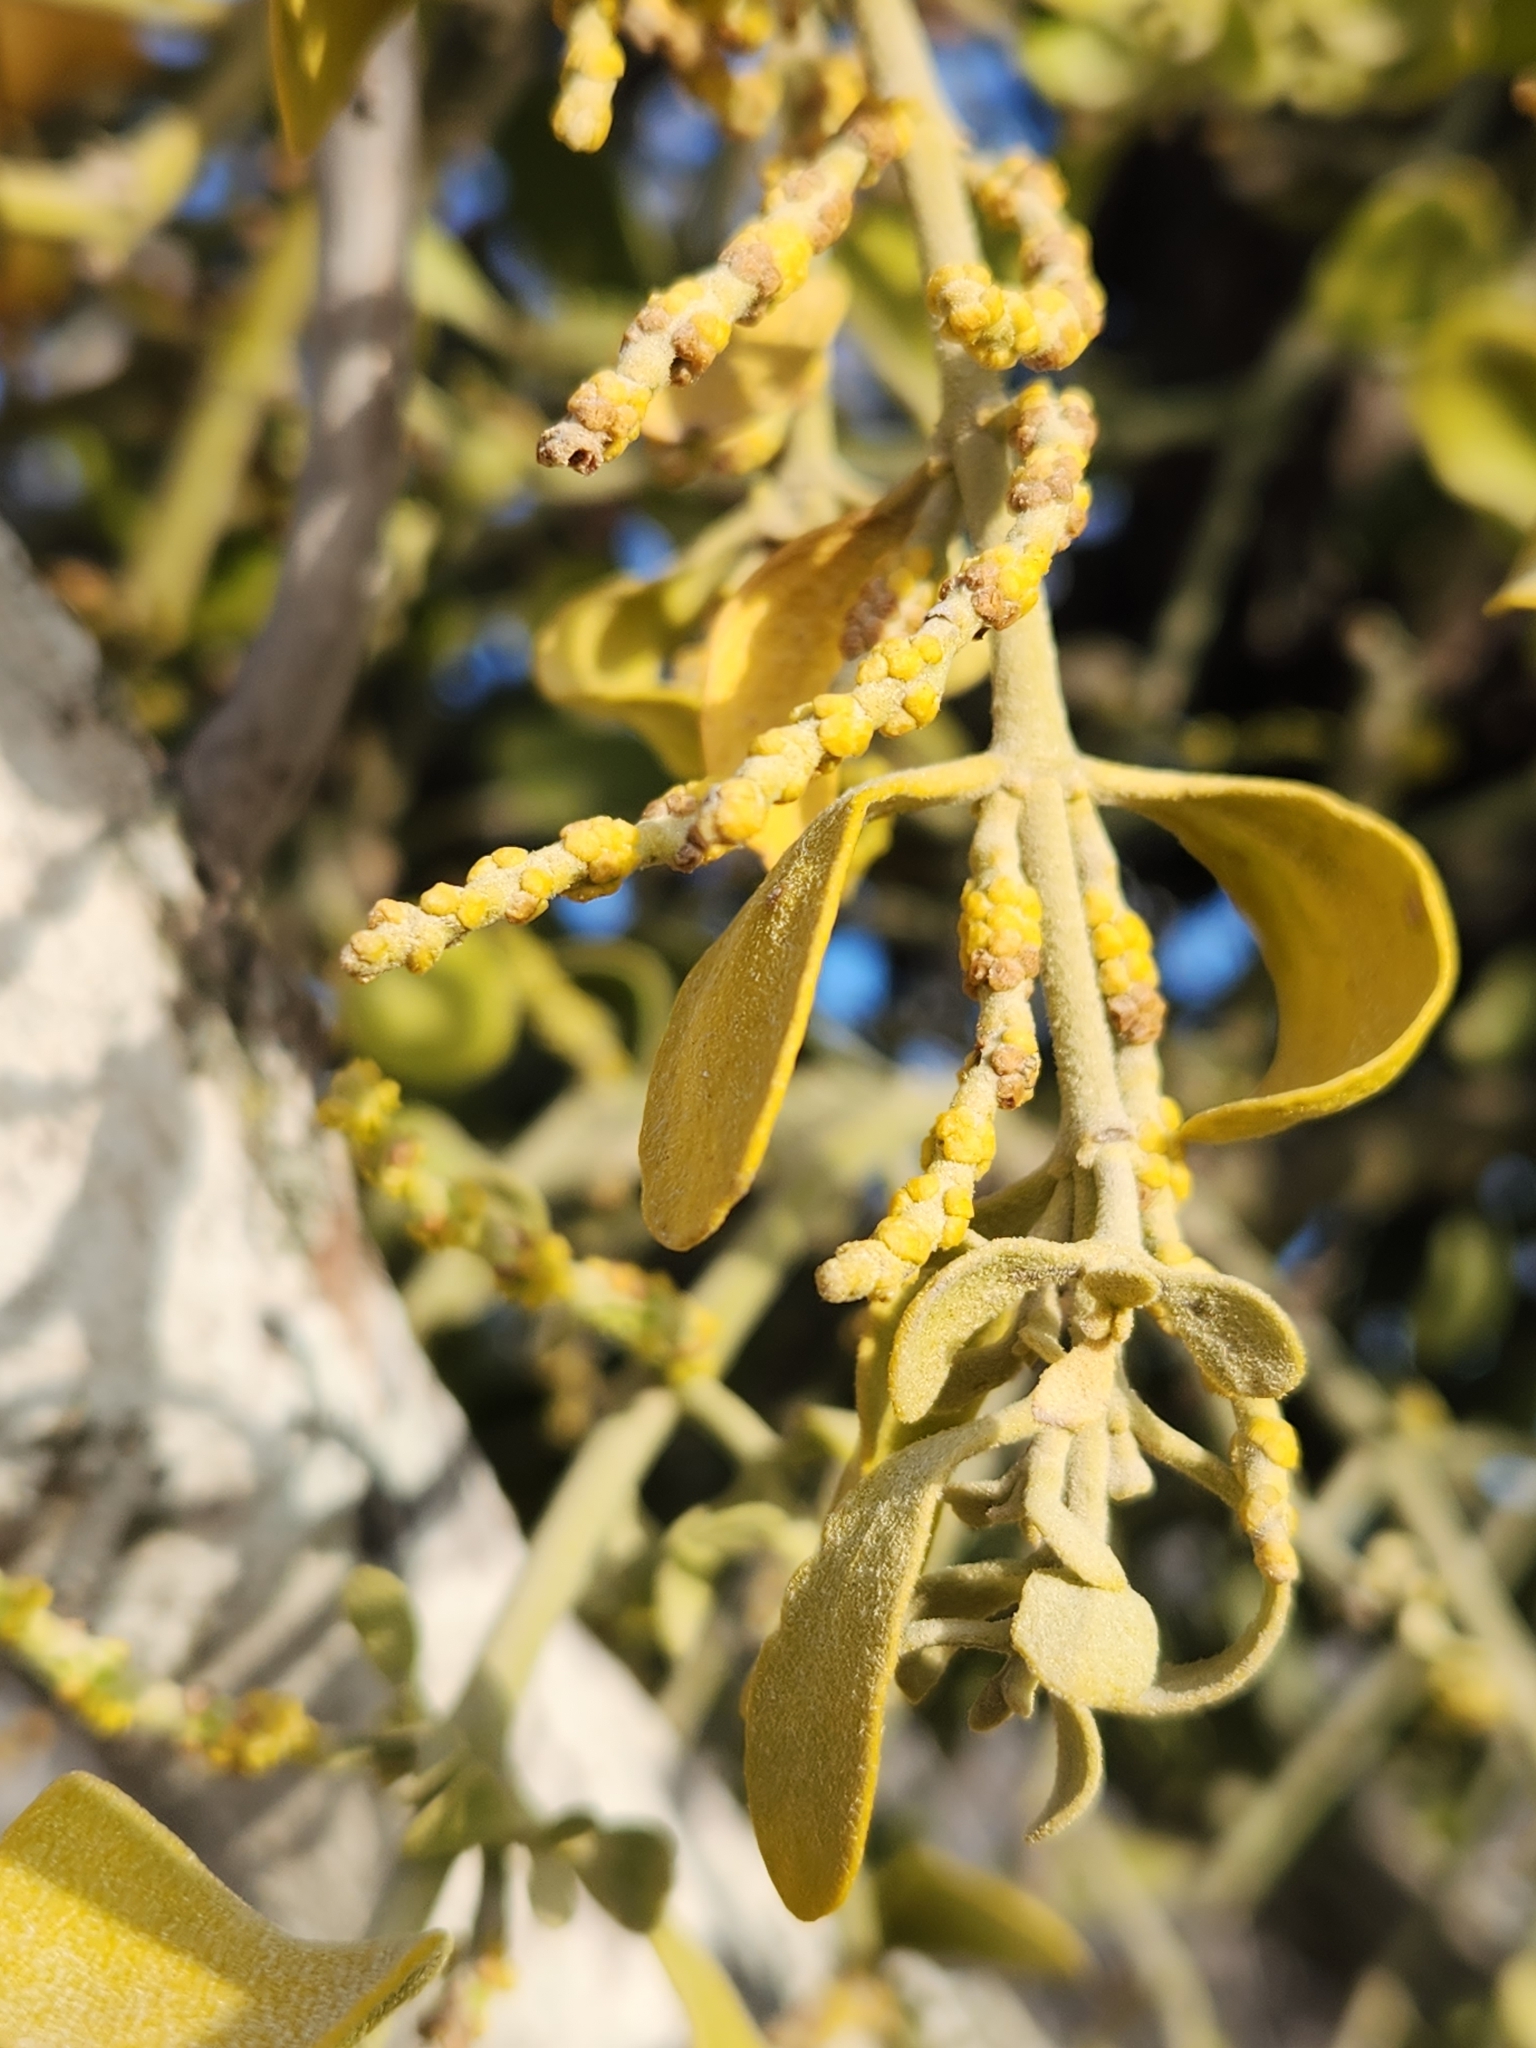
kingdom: Plantae
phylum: Tracheophyta
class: Magnoliopsida
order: Santalales
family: Viscaceae
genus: Phoradendron
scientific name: Phoradendron leucarpum
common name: Pacific mistletoe
